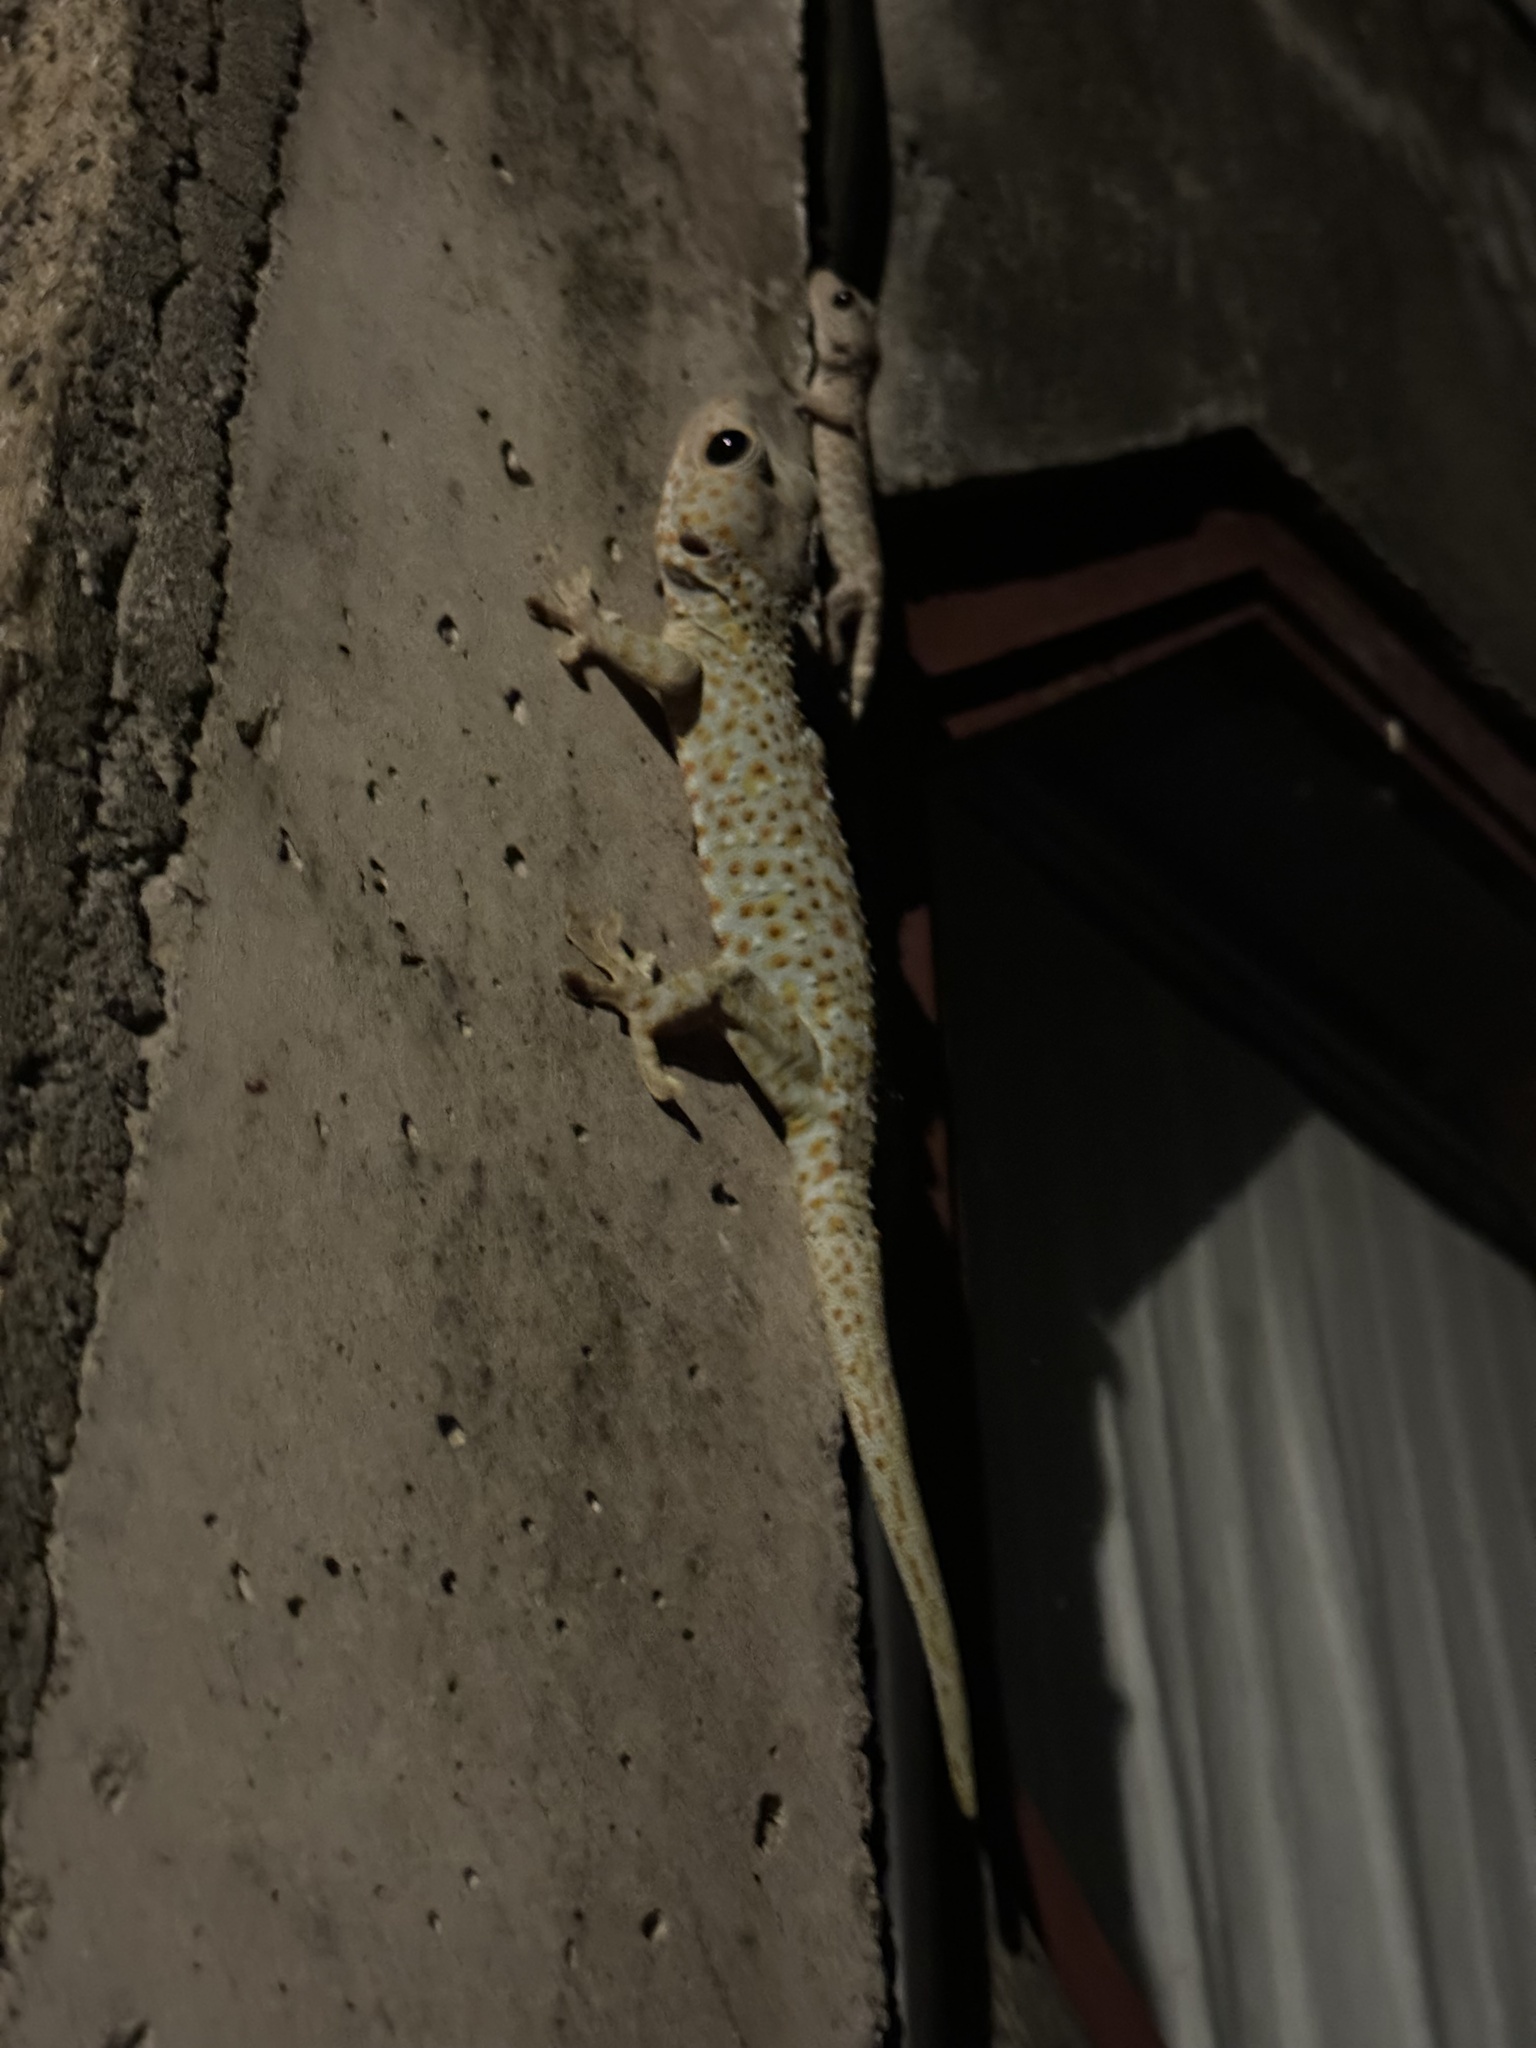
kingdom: Animalia
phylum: Chordata
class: Squamata
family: Gekkonidae
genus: Gekko
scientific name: Gekko gecko
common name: Tokay gecko
